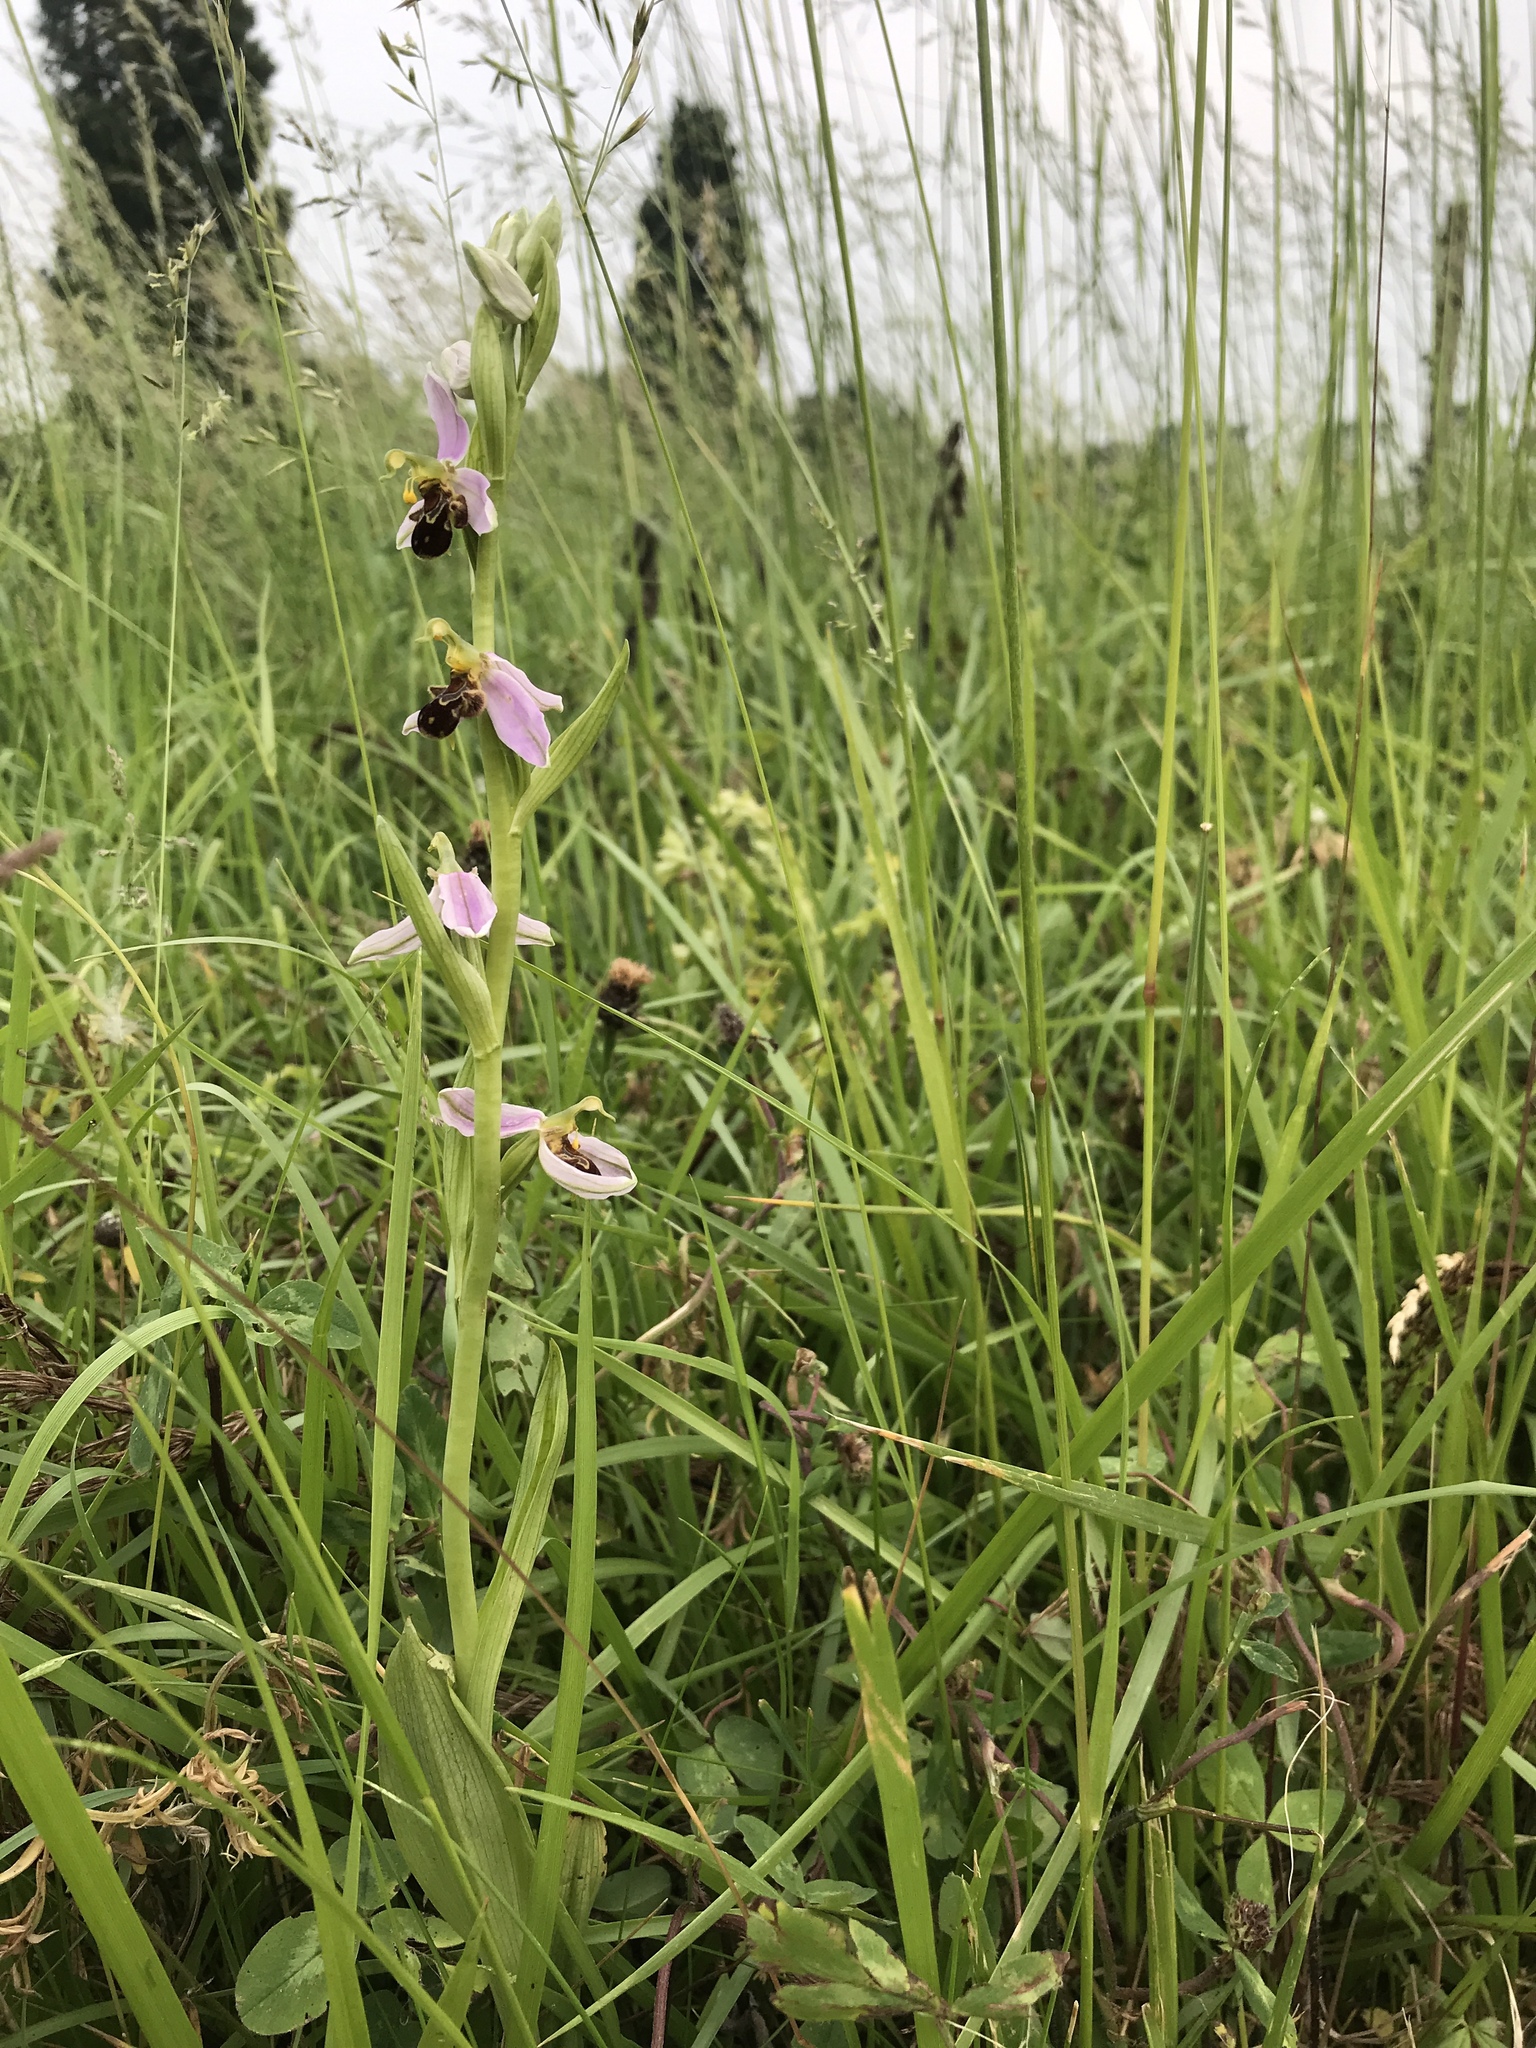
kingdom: Plantae
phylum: Tracheophyta
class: Liliopsida
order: Asparagales
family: Orchidaceae
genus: Ophrys
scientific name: Ophrys apifera
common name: Bee orchid
